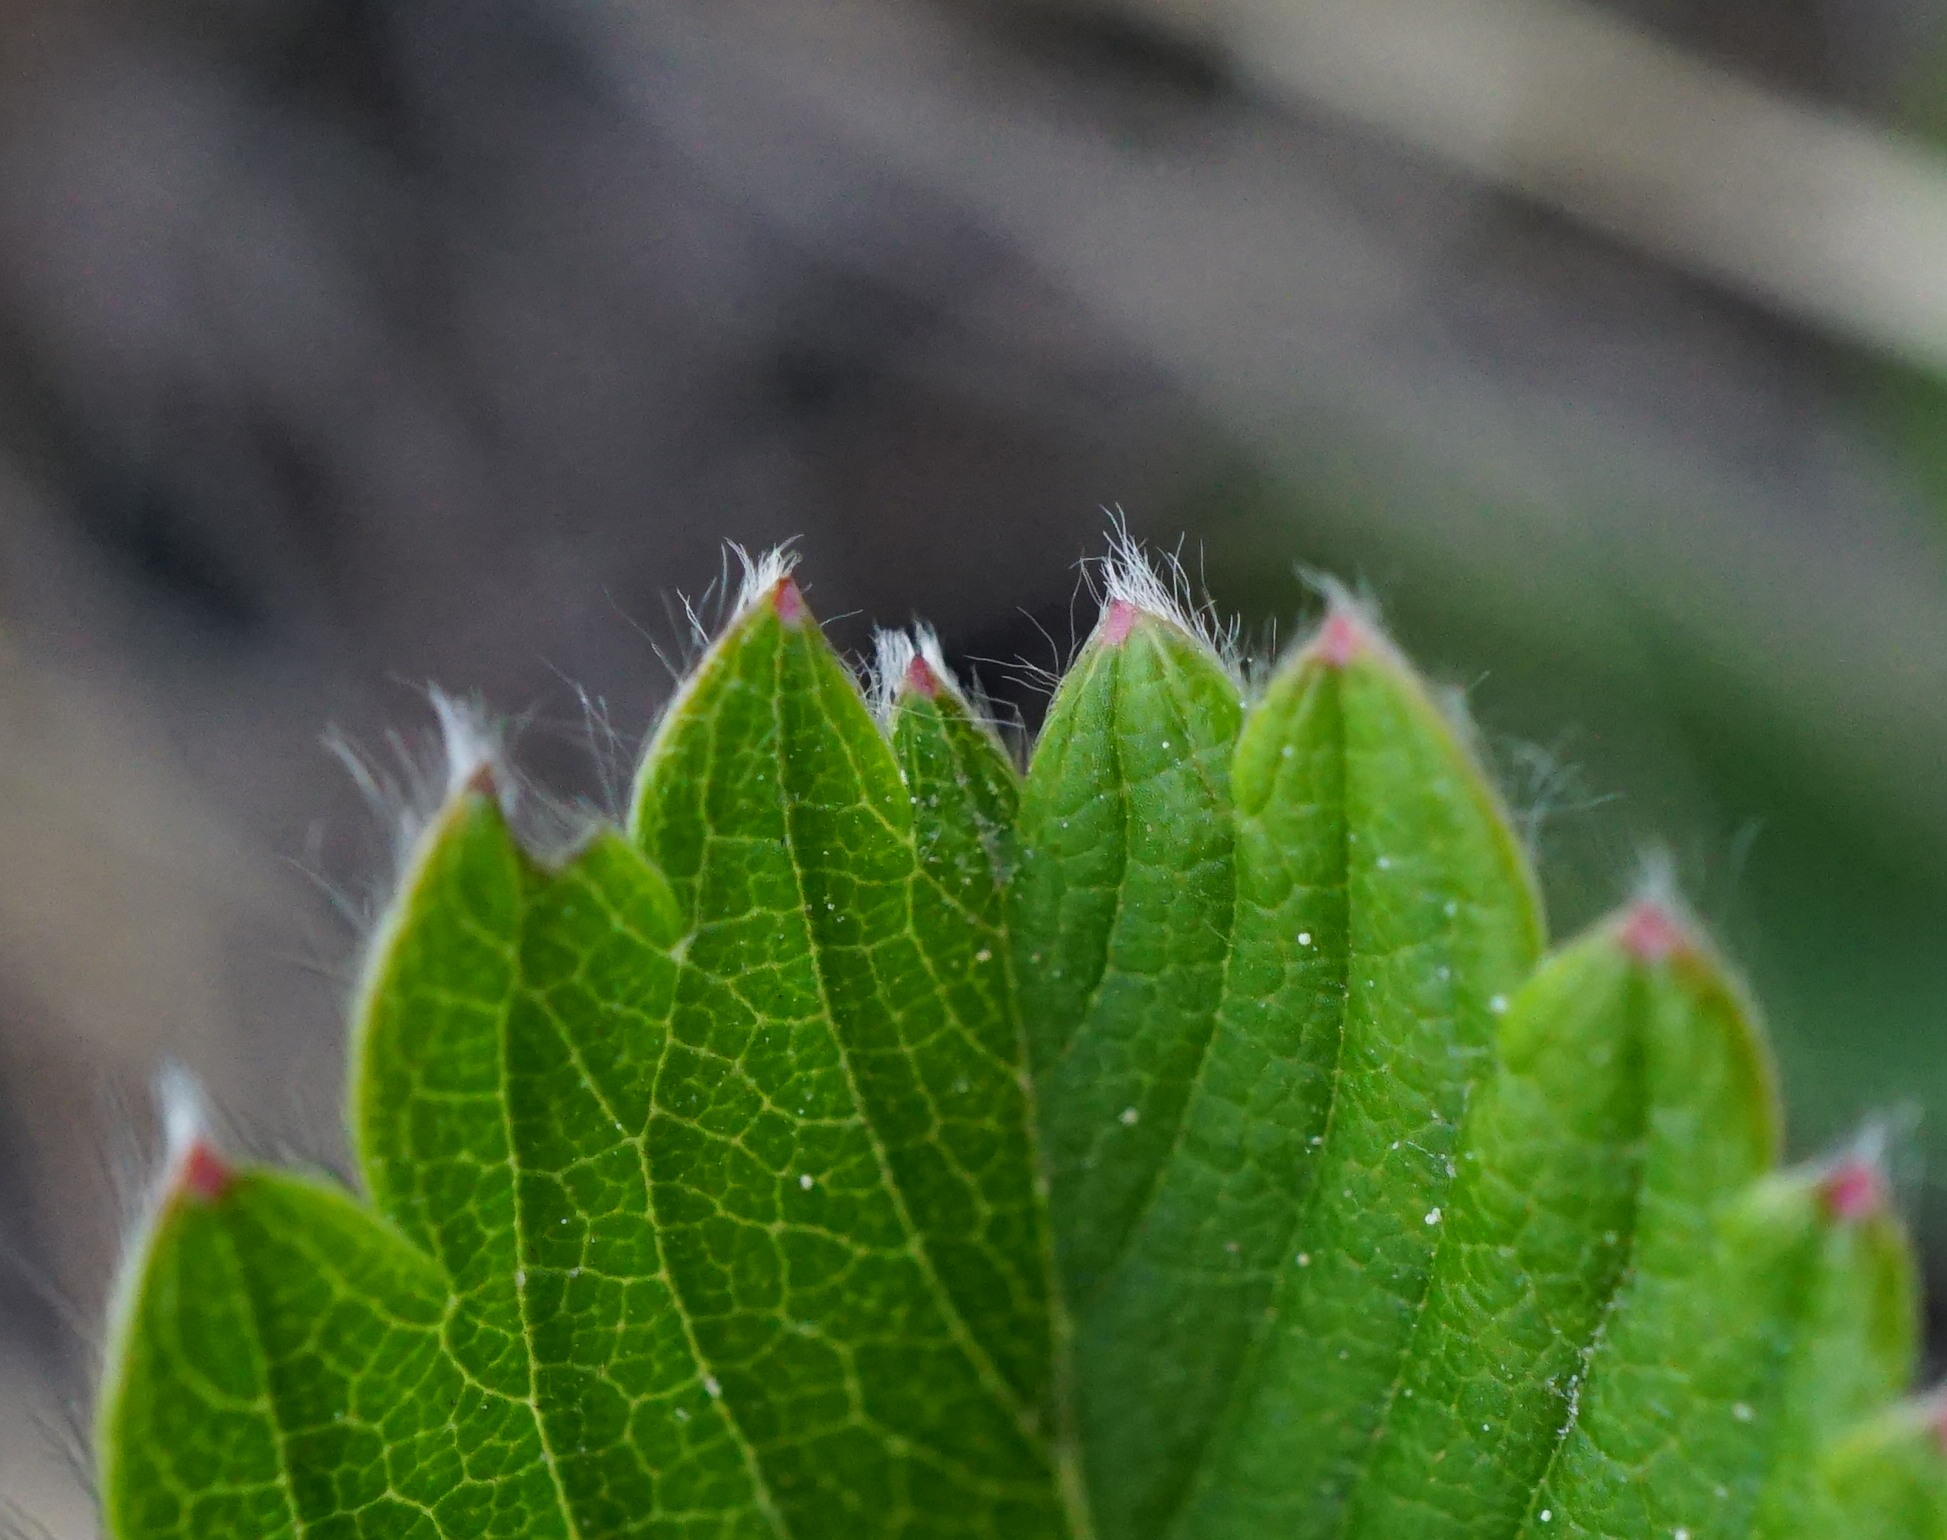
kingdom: Plantae
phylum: Tracheophyta
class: Magnoliopsida
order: Rosales
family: Rosaceae
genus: Fragaria
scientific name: Fragaria viridis
